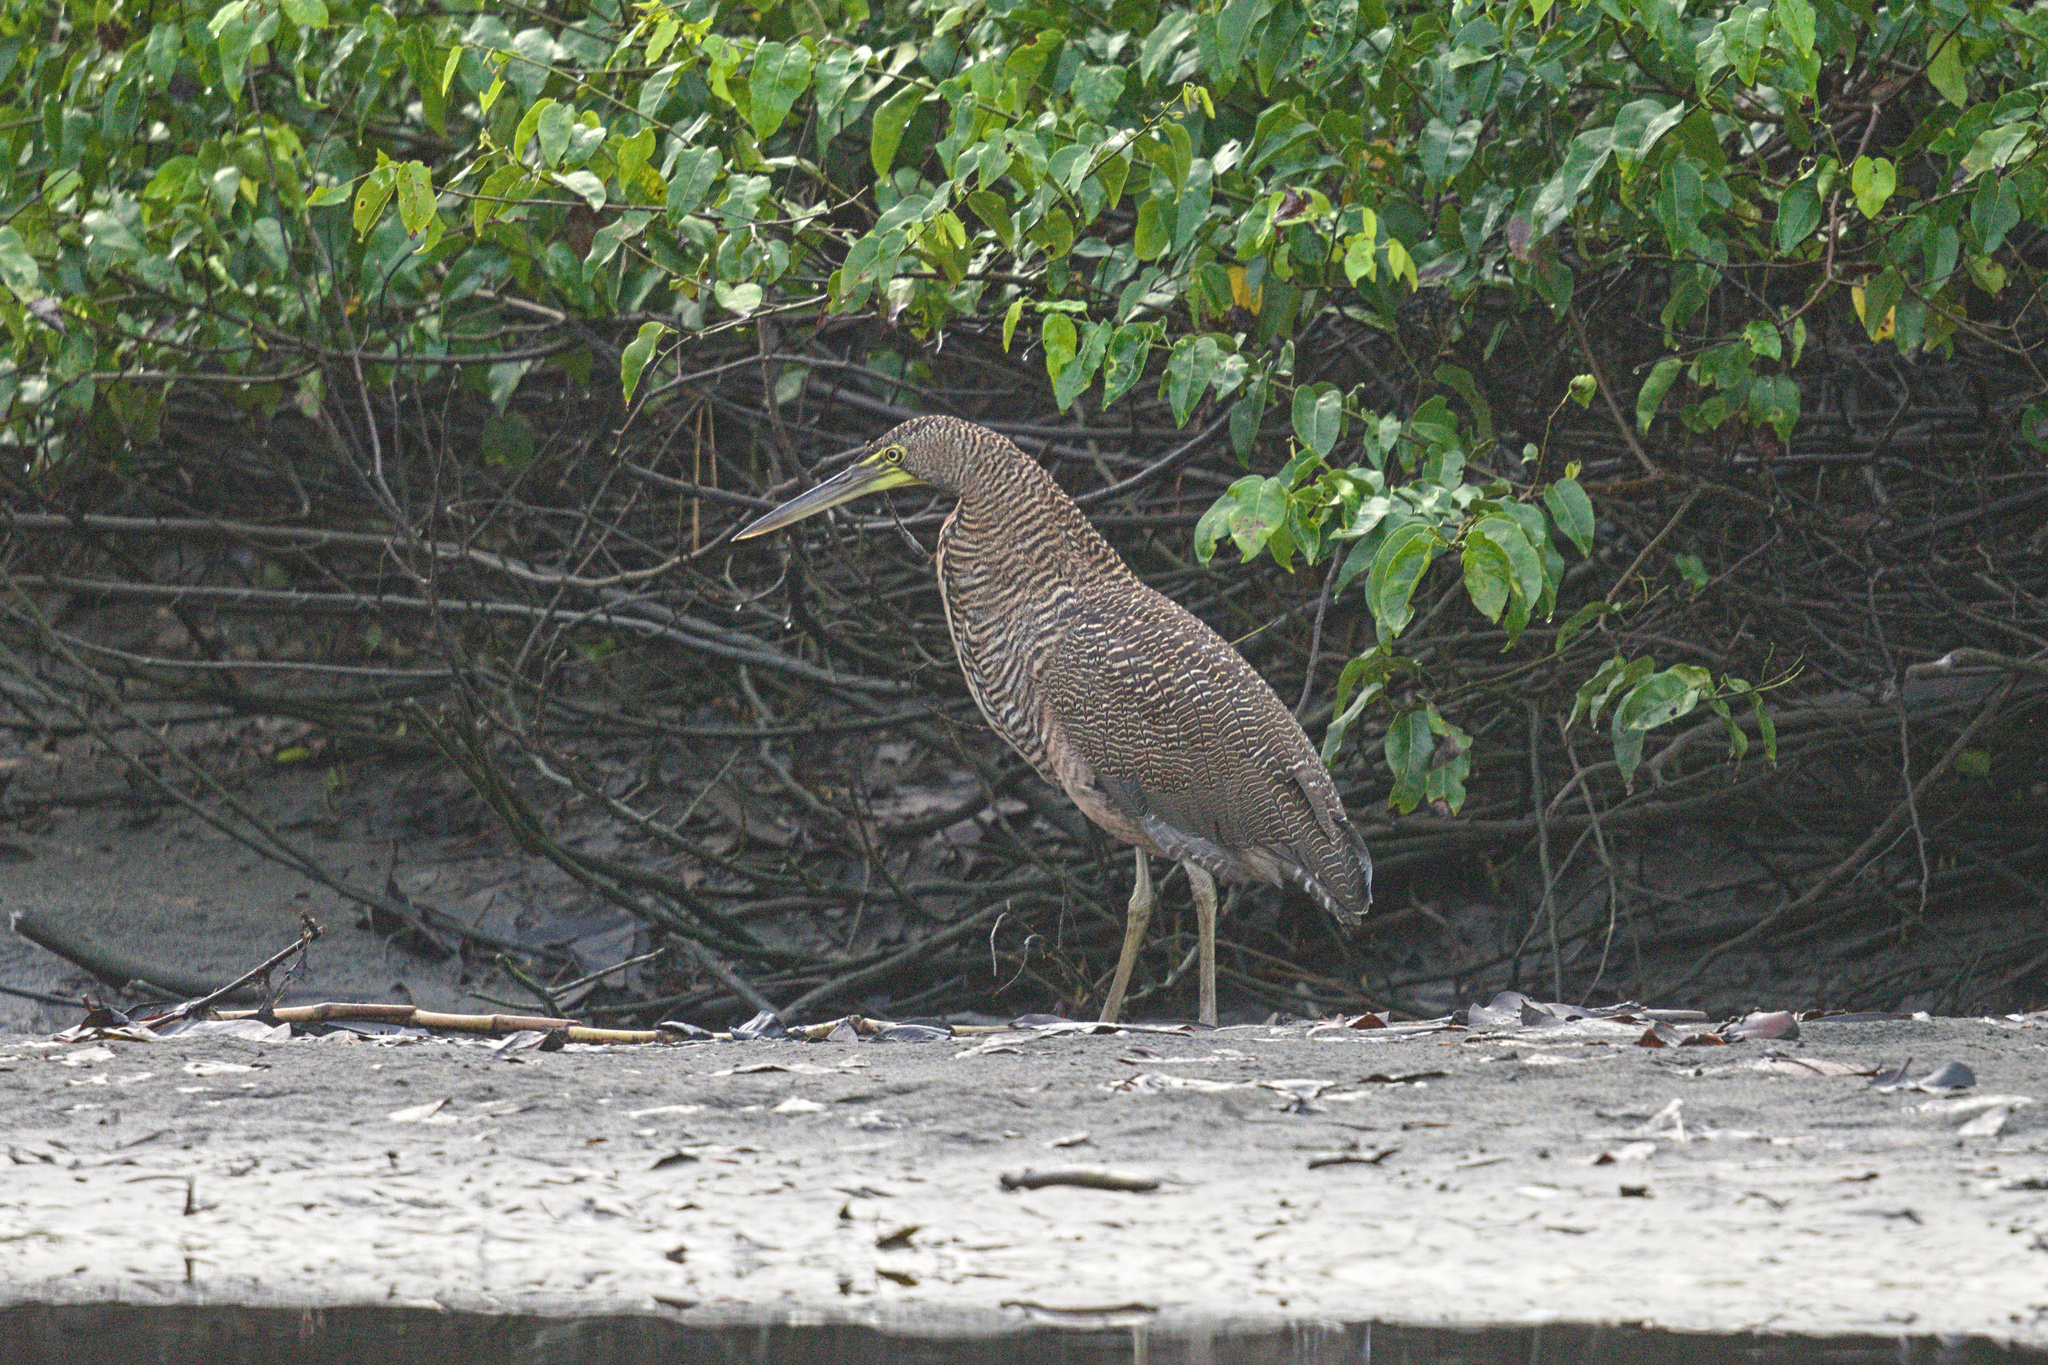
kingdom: Animalia
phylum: Chordata
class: Aves
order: Pelecaniformes
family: Ardeidae
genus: Tigrisoma
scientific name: Tigrisoma mexicanum
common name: Bare-throated tiger-heron
